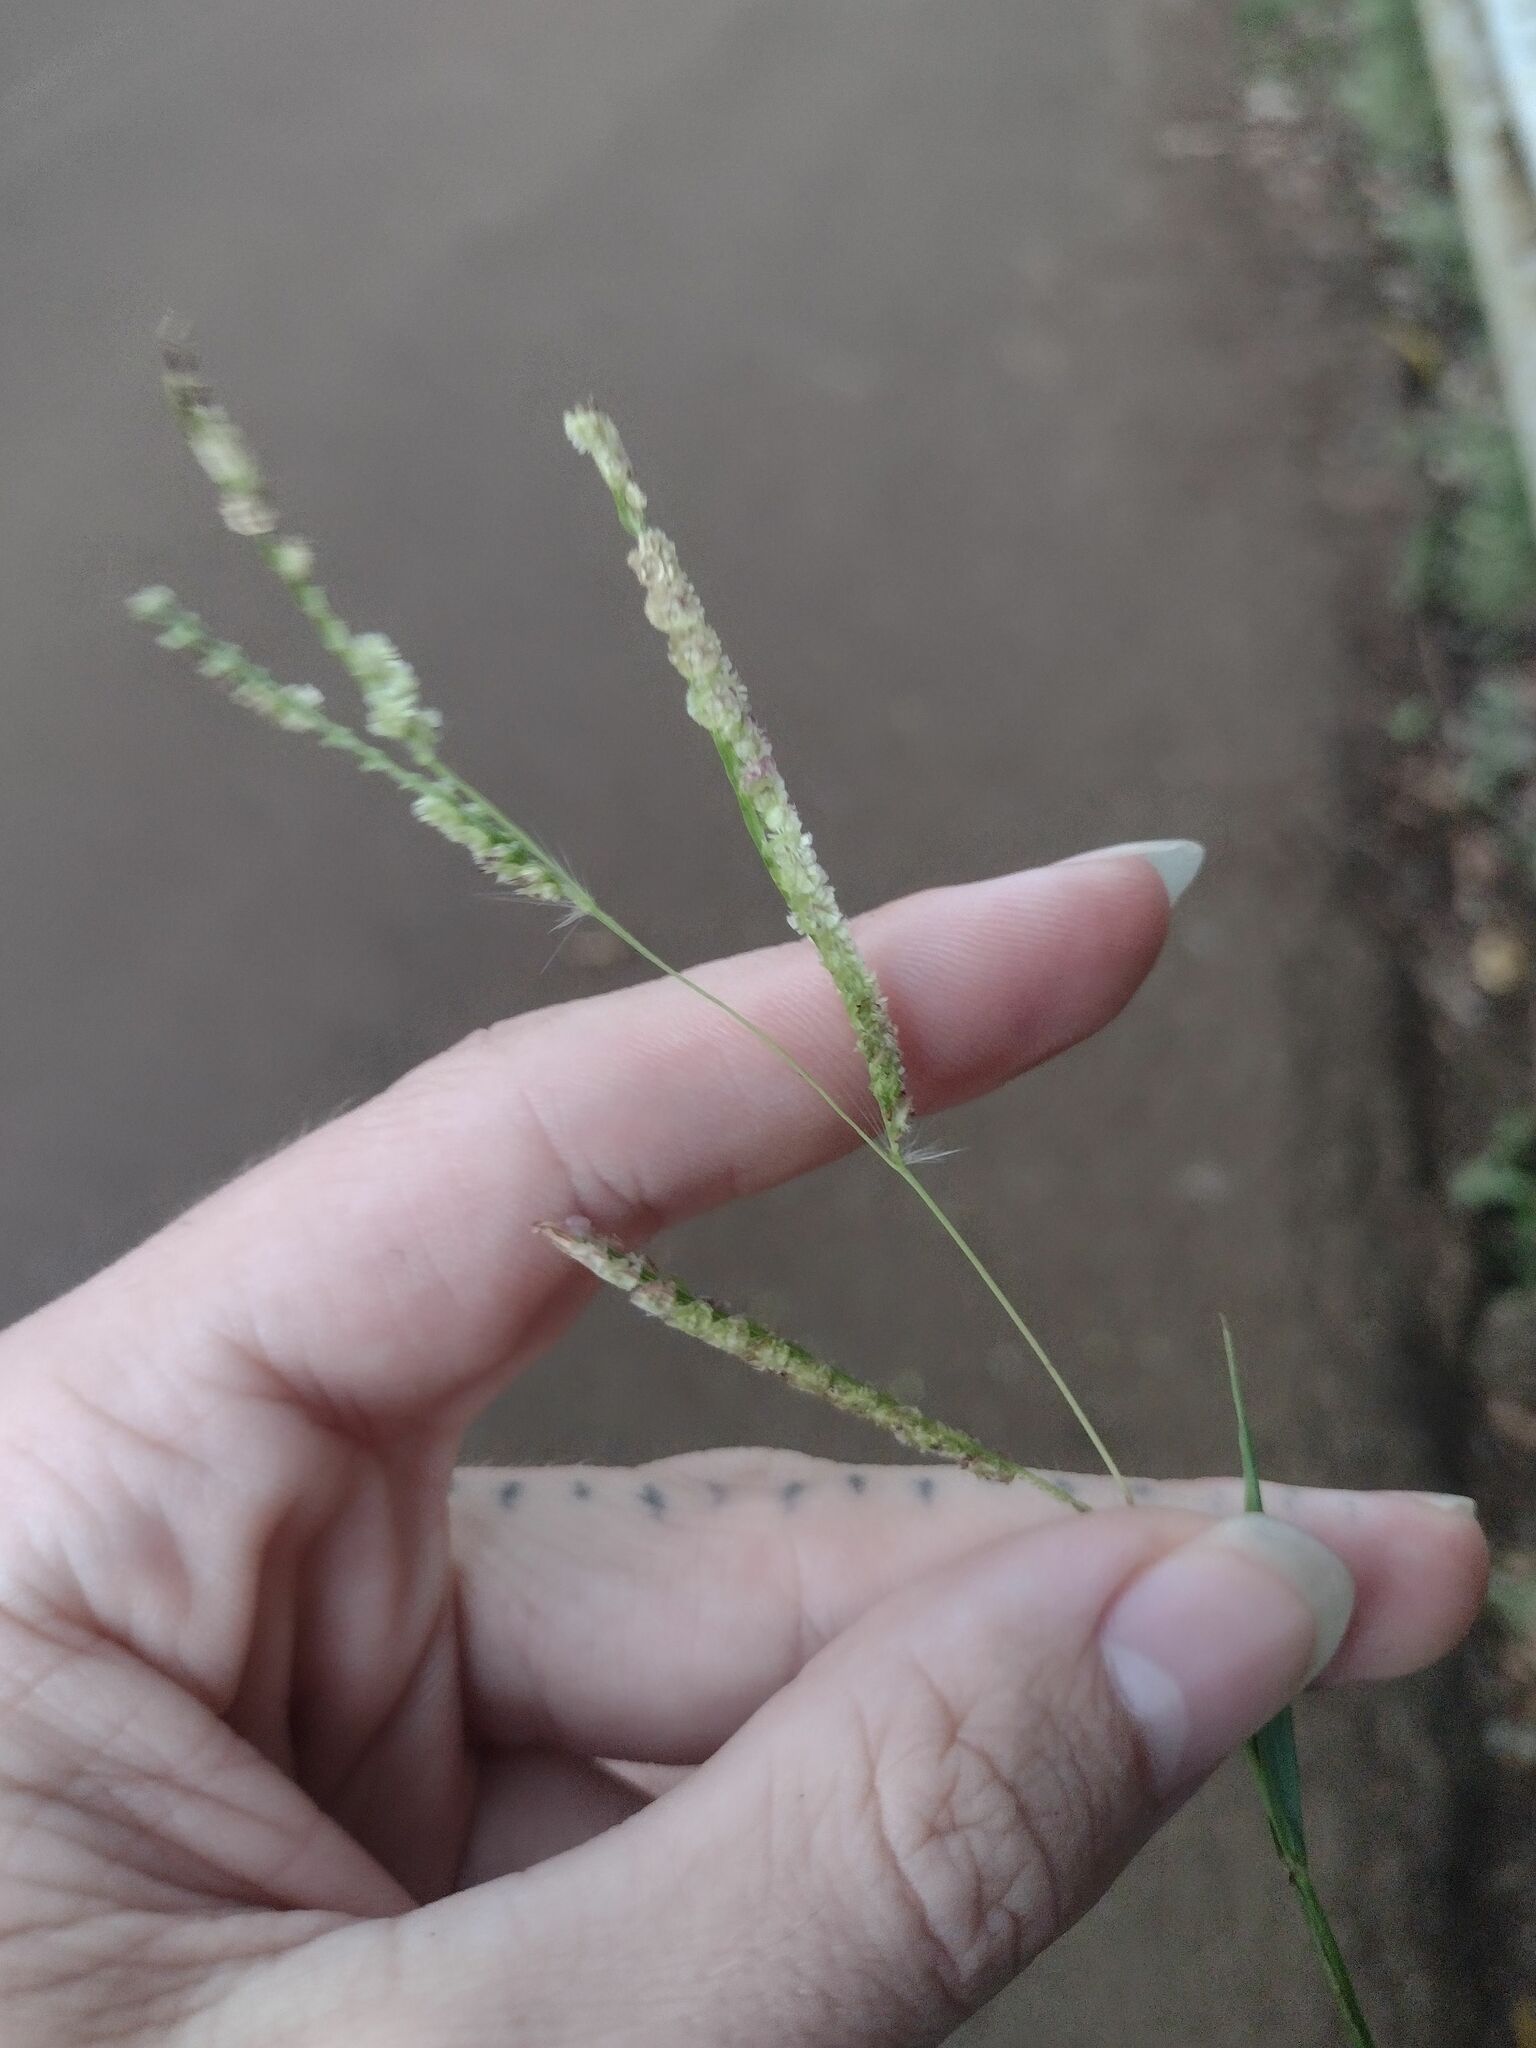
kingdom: Plantae
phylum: Tracheophyta
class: Liliopsida
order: Poales
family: Poaceae
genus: Paspalum
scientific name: Paspalum fimbriatum
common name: Panama crowngrass
